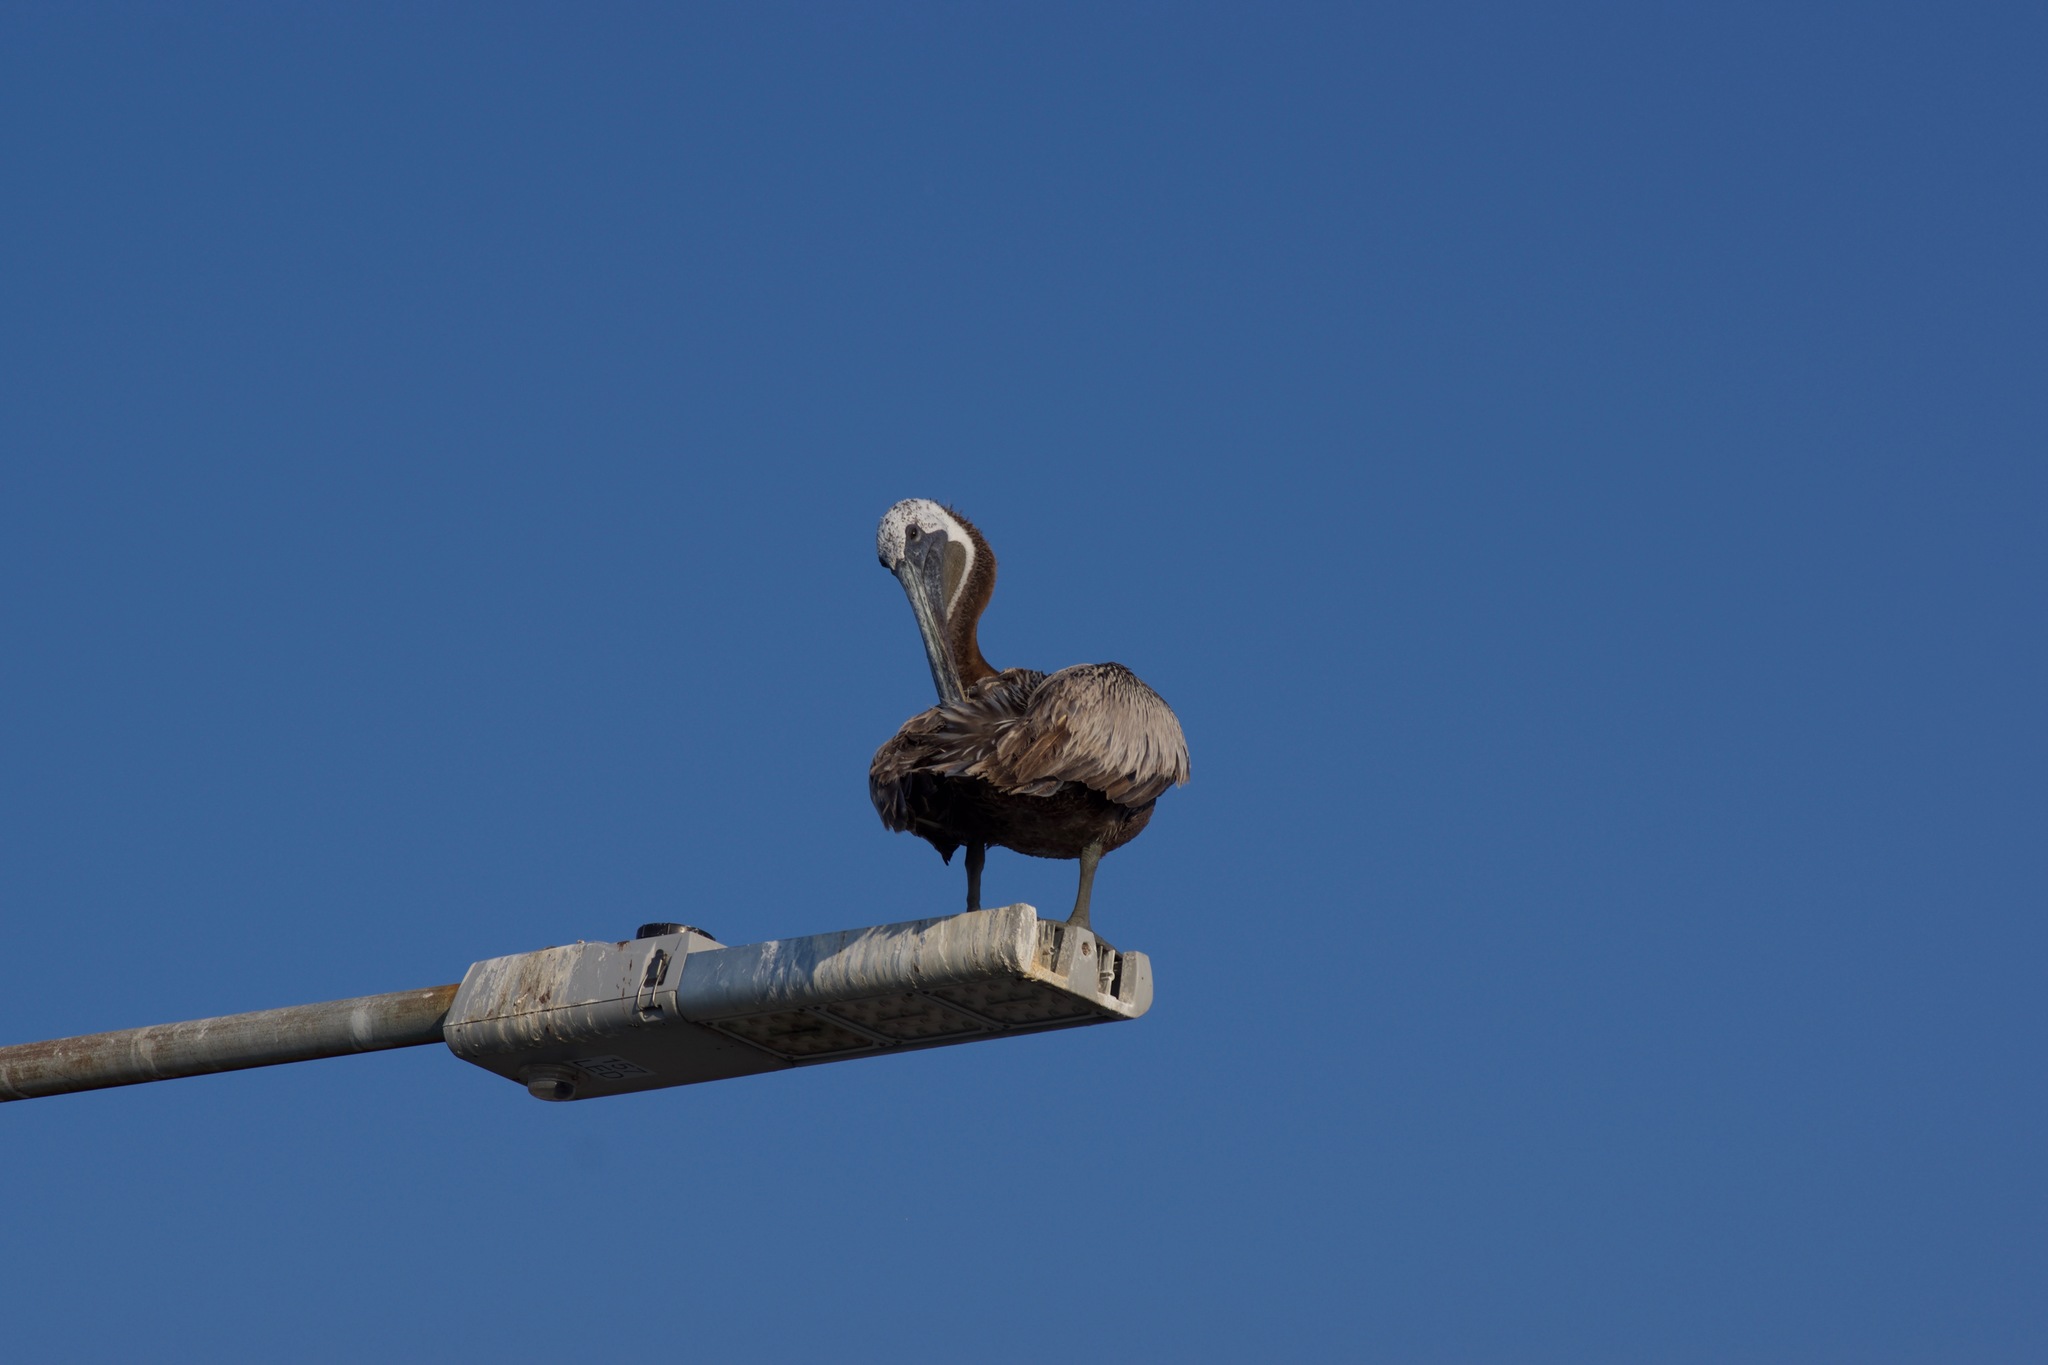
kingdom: Animalia
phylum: Chordata
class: Aves
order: Pelecaniformes
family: Pelecanidae
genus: Pelecanus
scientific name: Pelecanus occidentalis
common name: Brown pelican
